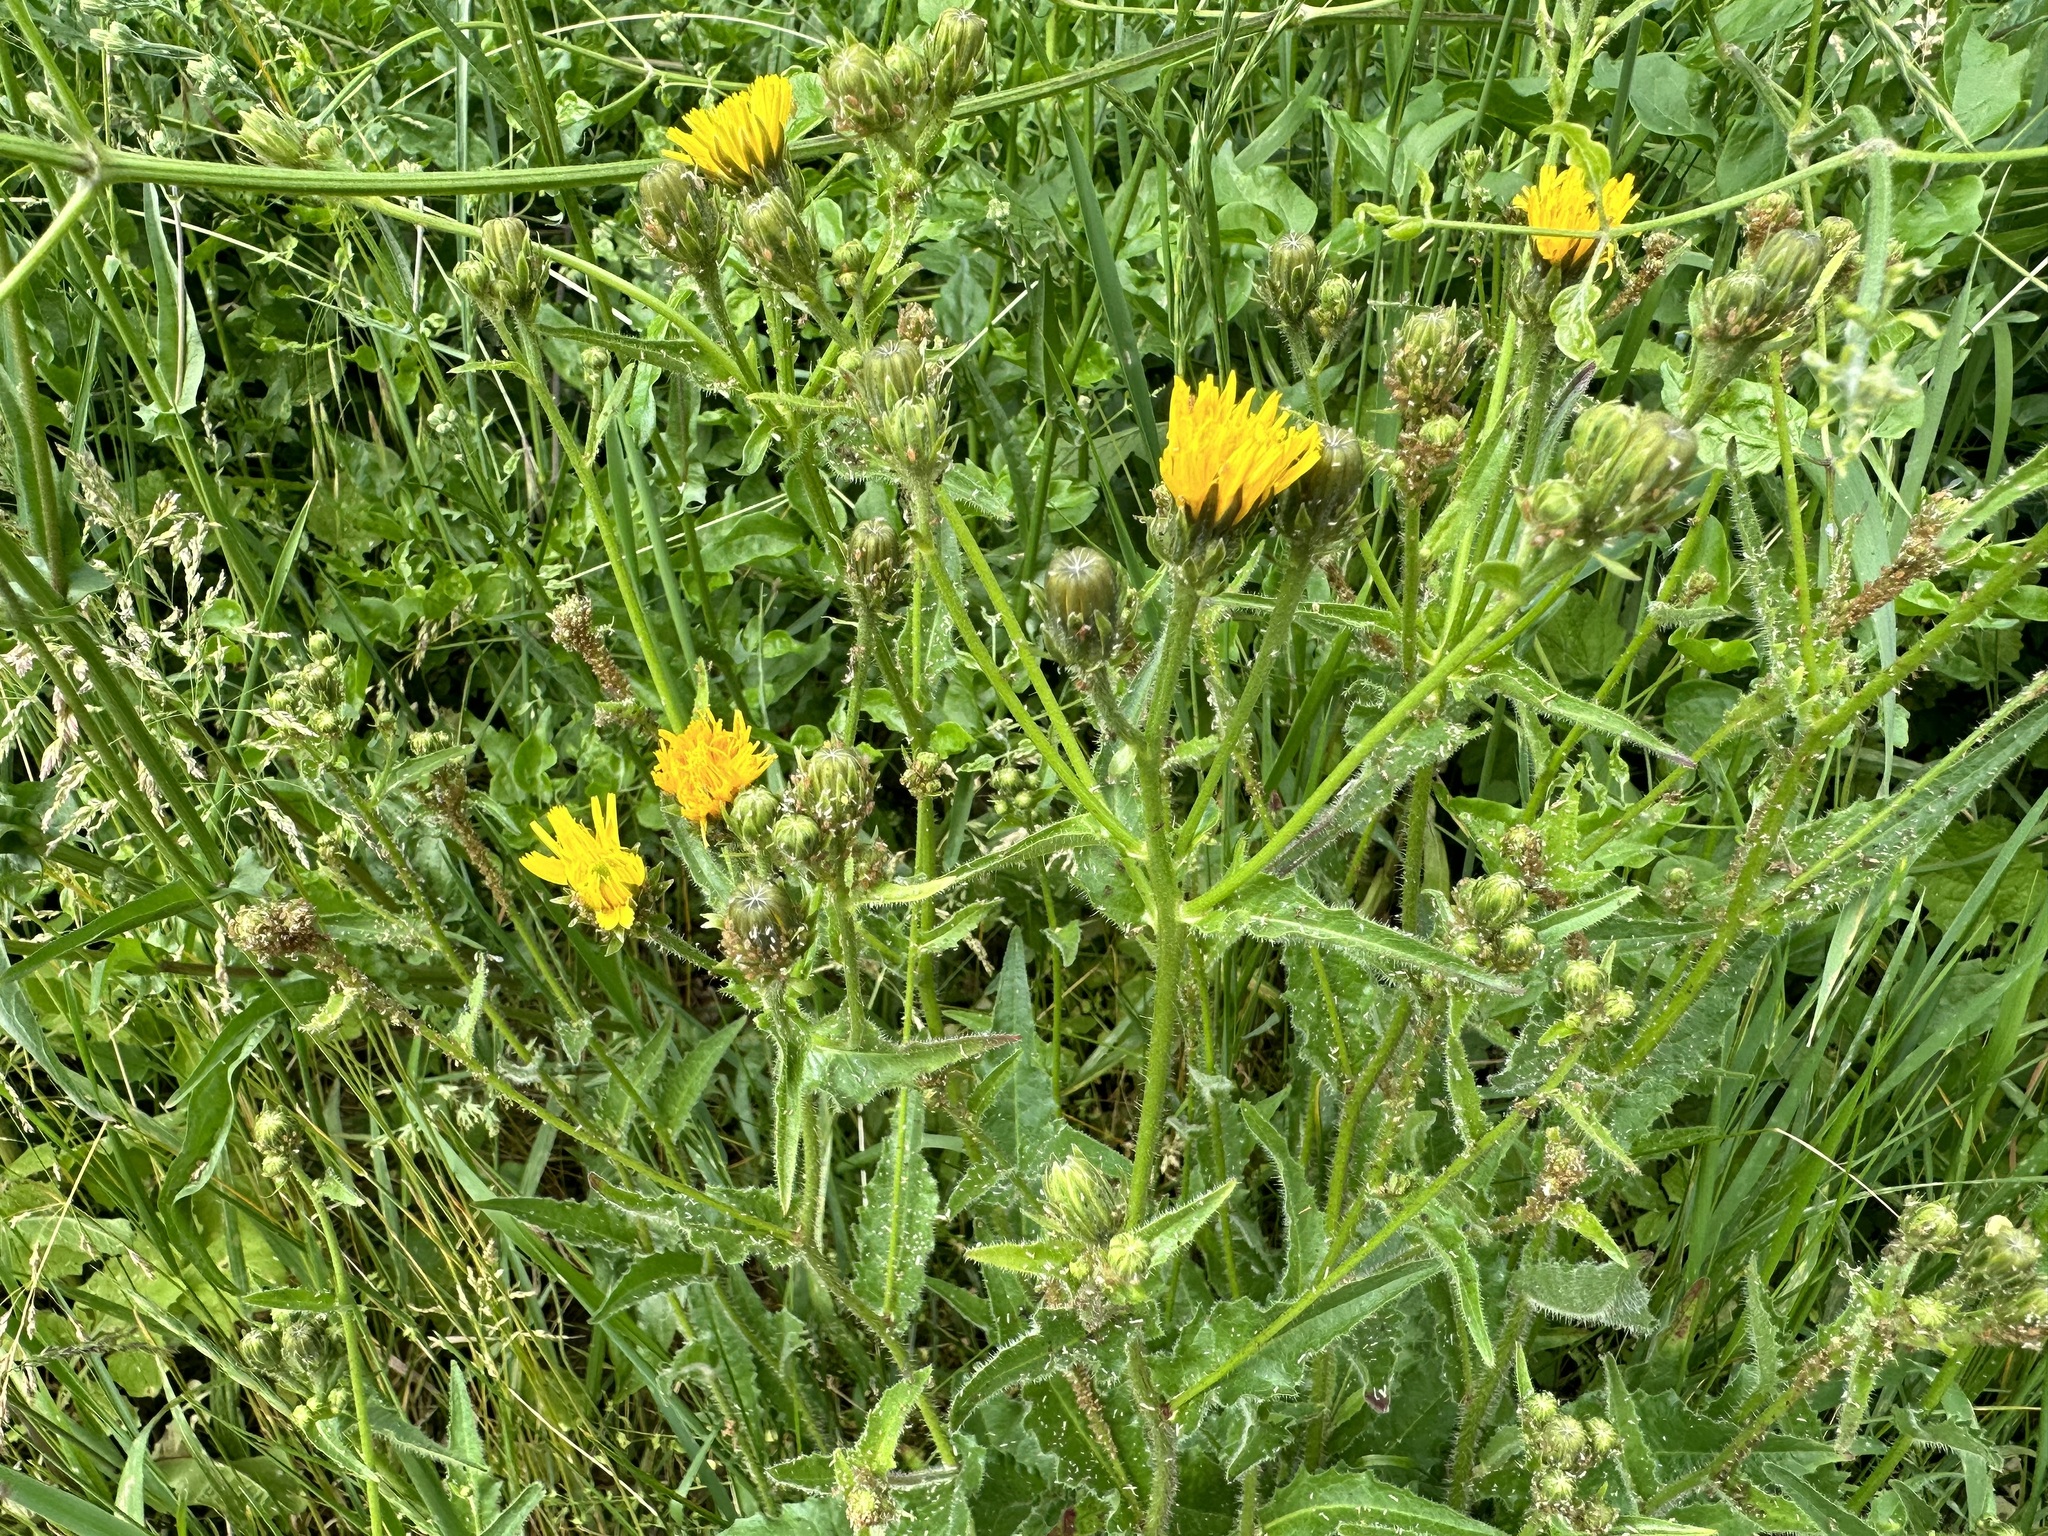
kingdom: Plantae
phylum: Tracheophyta
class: Magnoliopsida
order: Asterales
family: Asteraceae
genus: Picris
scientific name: Picris hieracioides
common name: Hawkweed oxtongue
